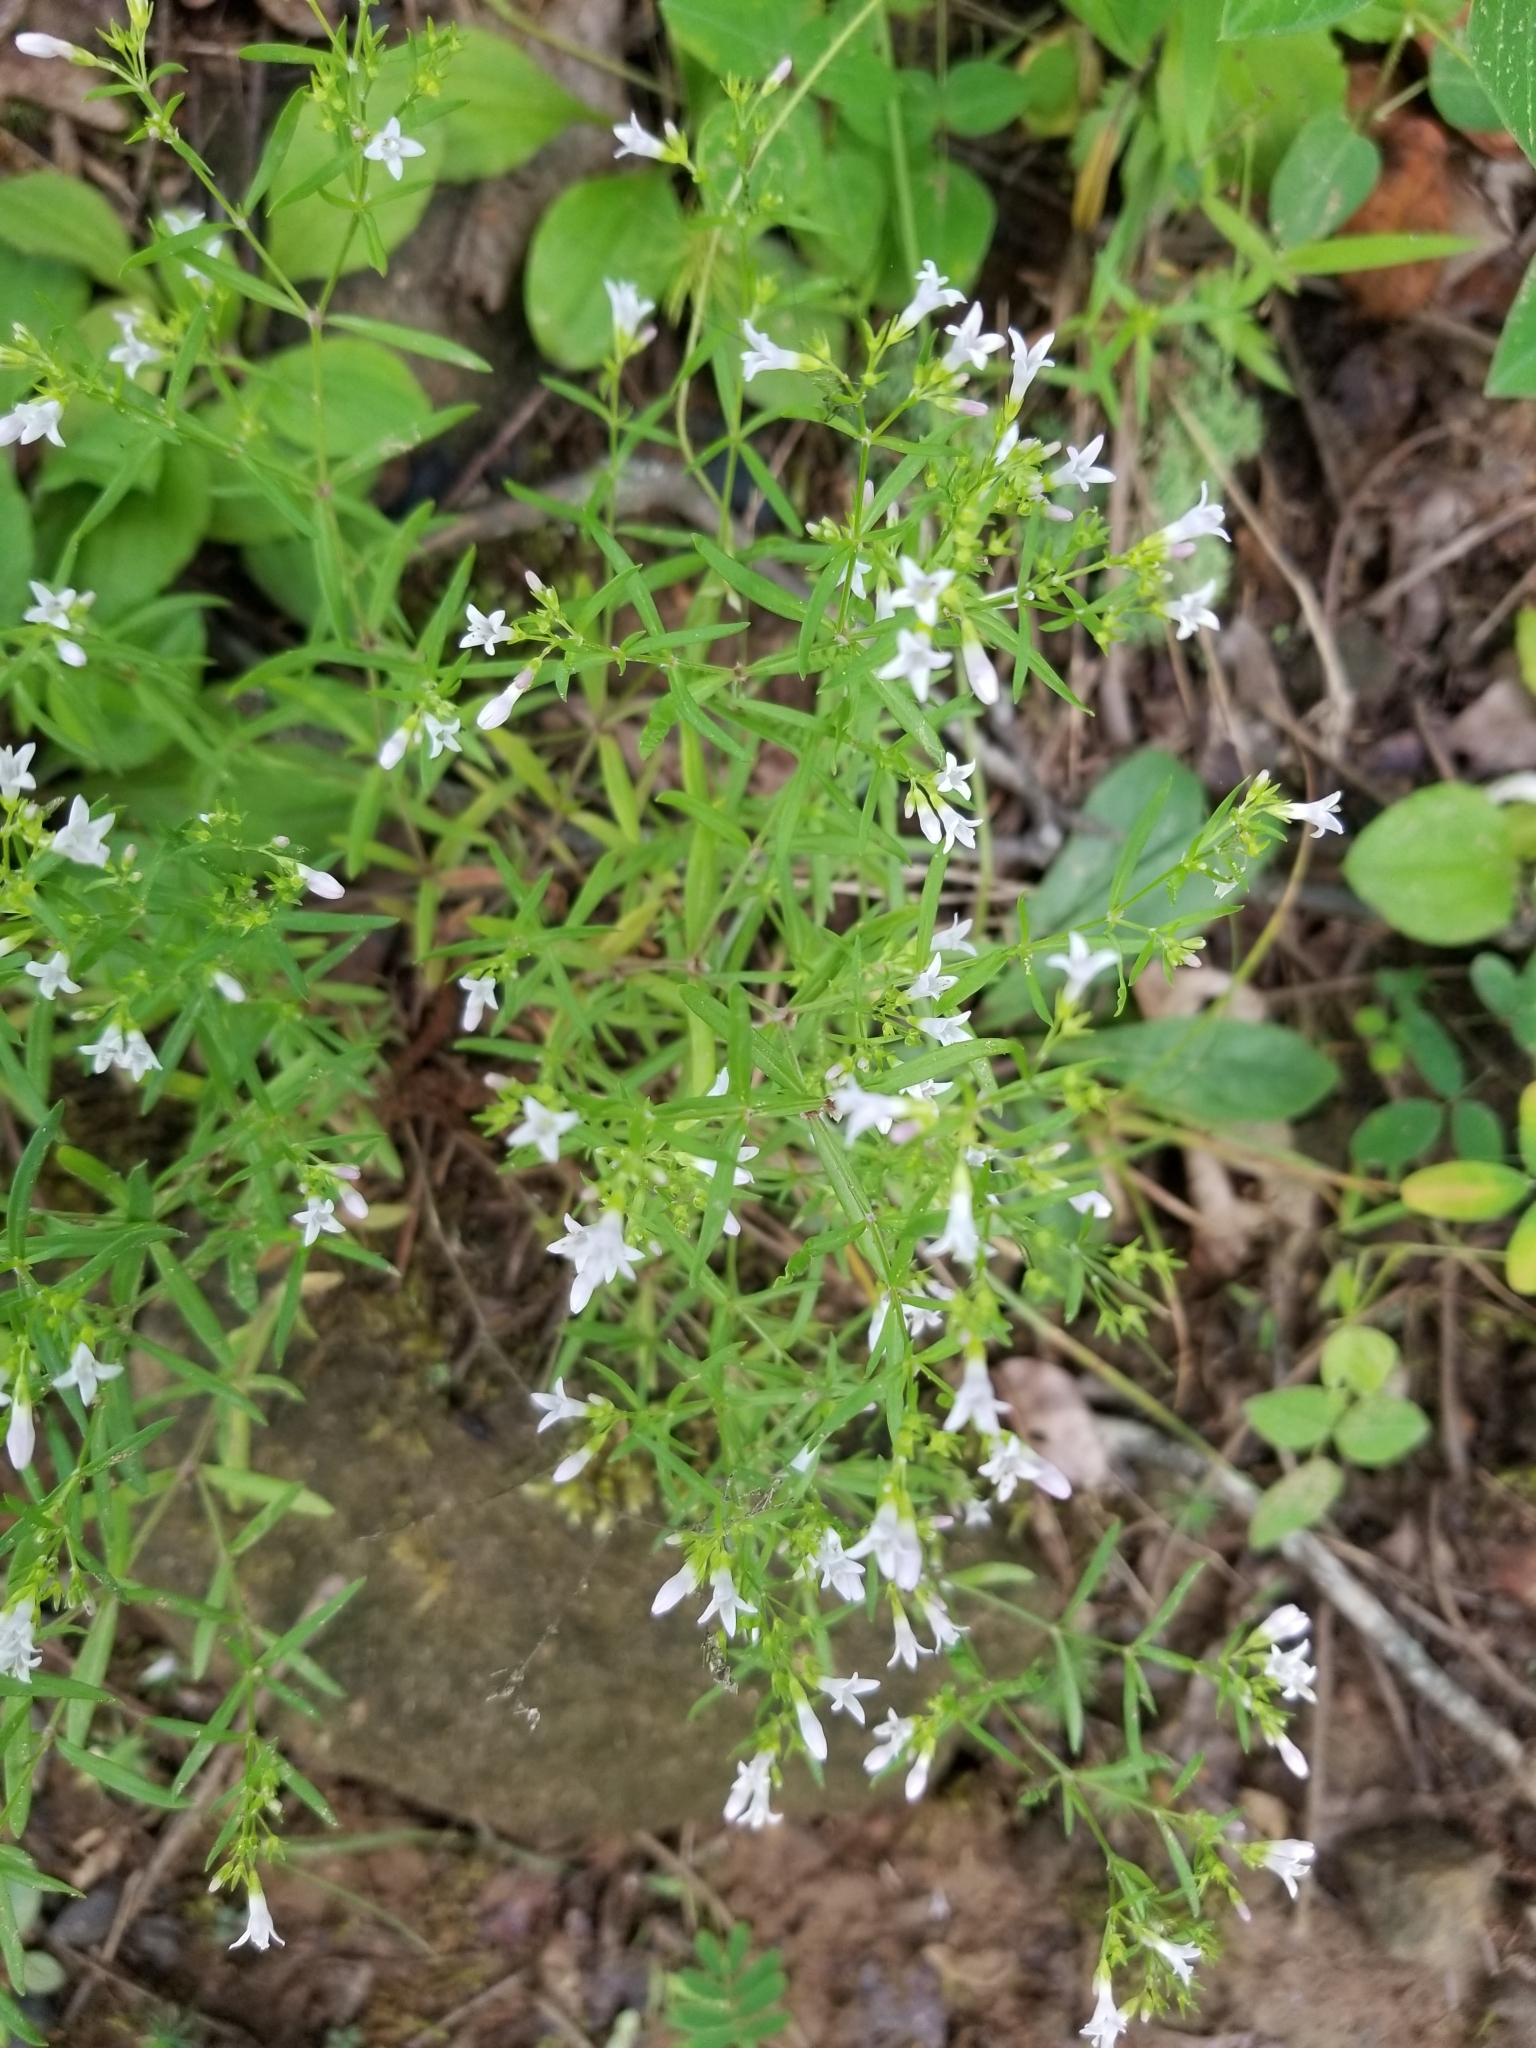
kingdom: Plantae
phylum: Tracheophyta
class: Magnoliopsida
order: Gentianales
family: Rubiaceae
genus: Houstonia
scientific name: Houstonia longifolia
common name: Long-leaved bluets
